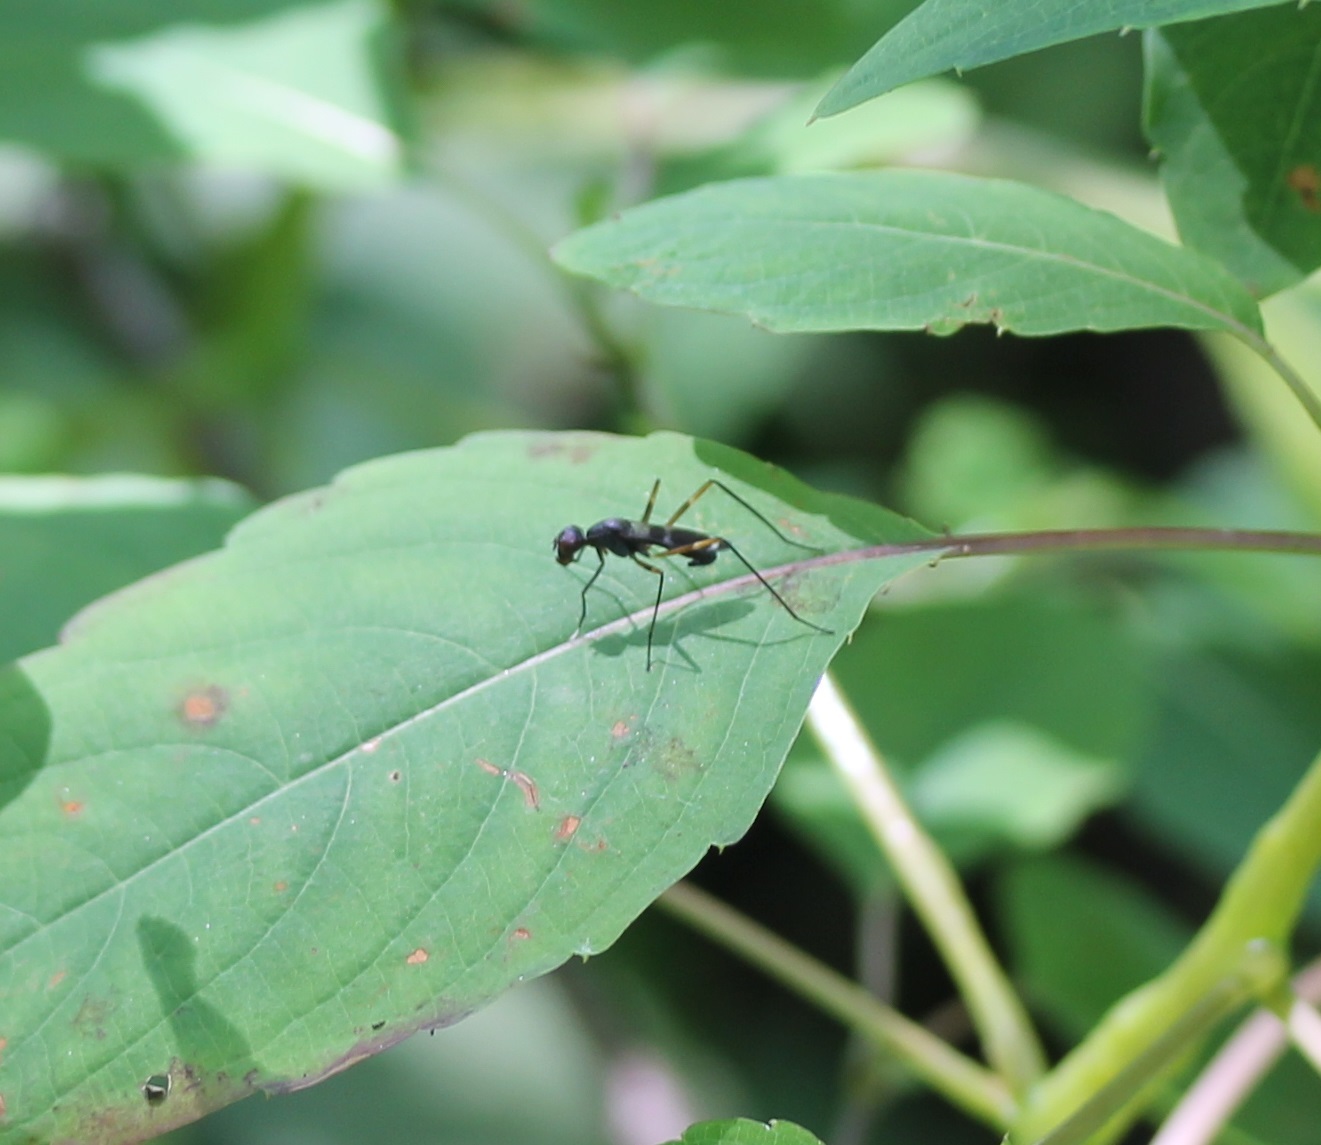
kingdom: Animalia
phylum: Arthropoda
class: Insecta
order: Diptera
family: Micropezidae
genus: Taeniaptera
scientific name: Taeniaptera trivittata
